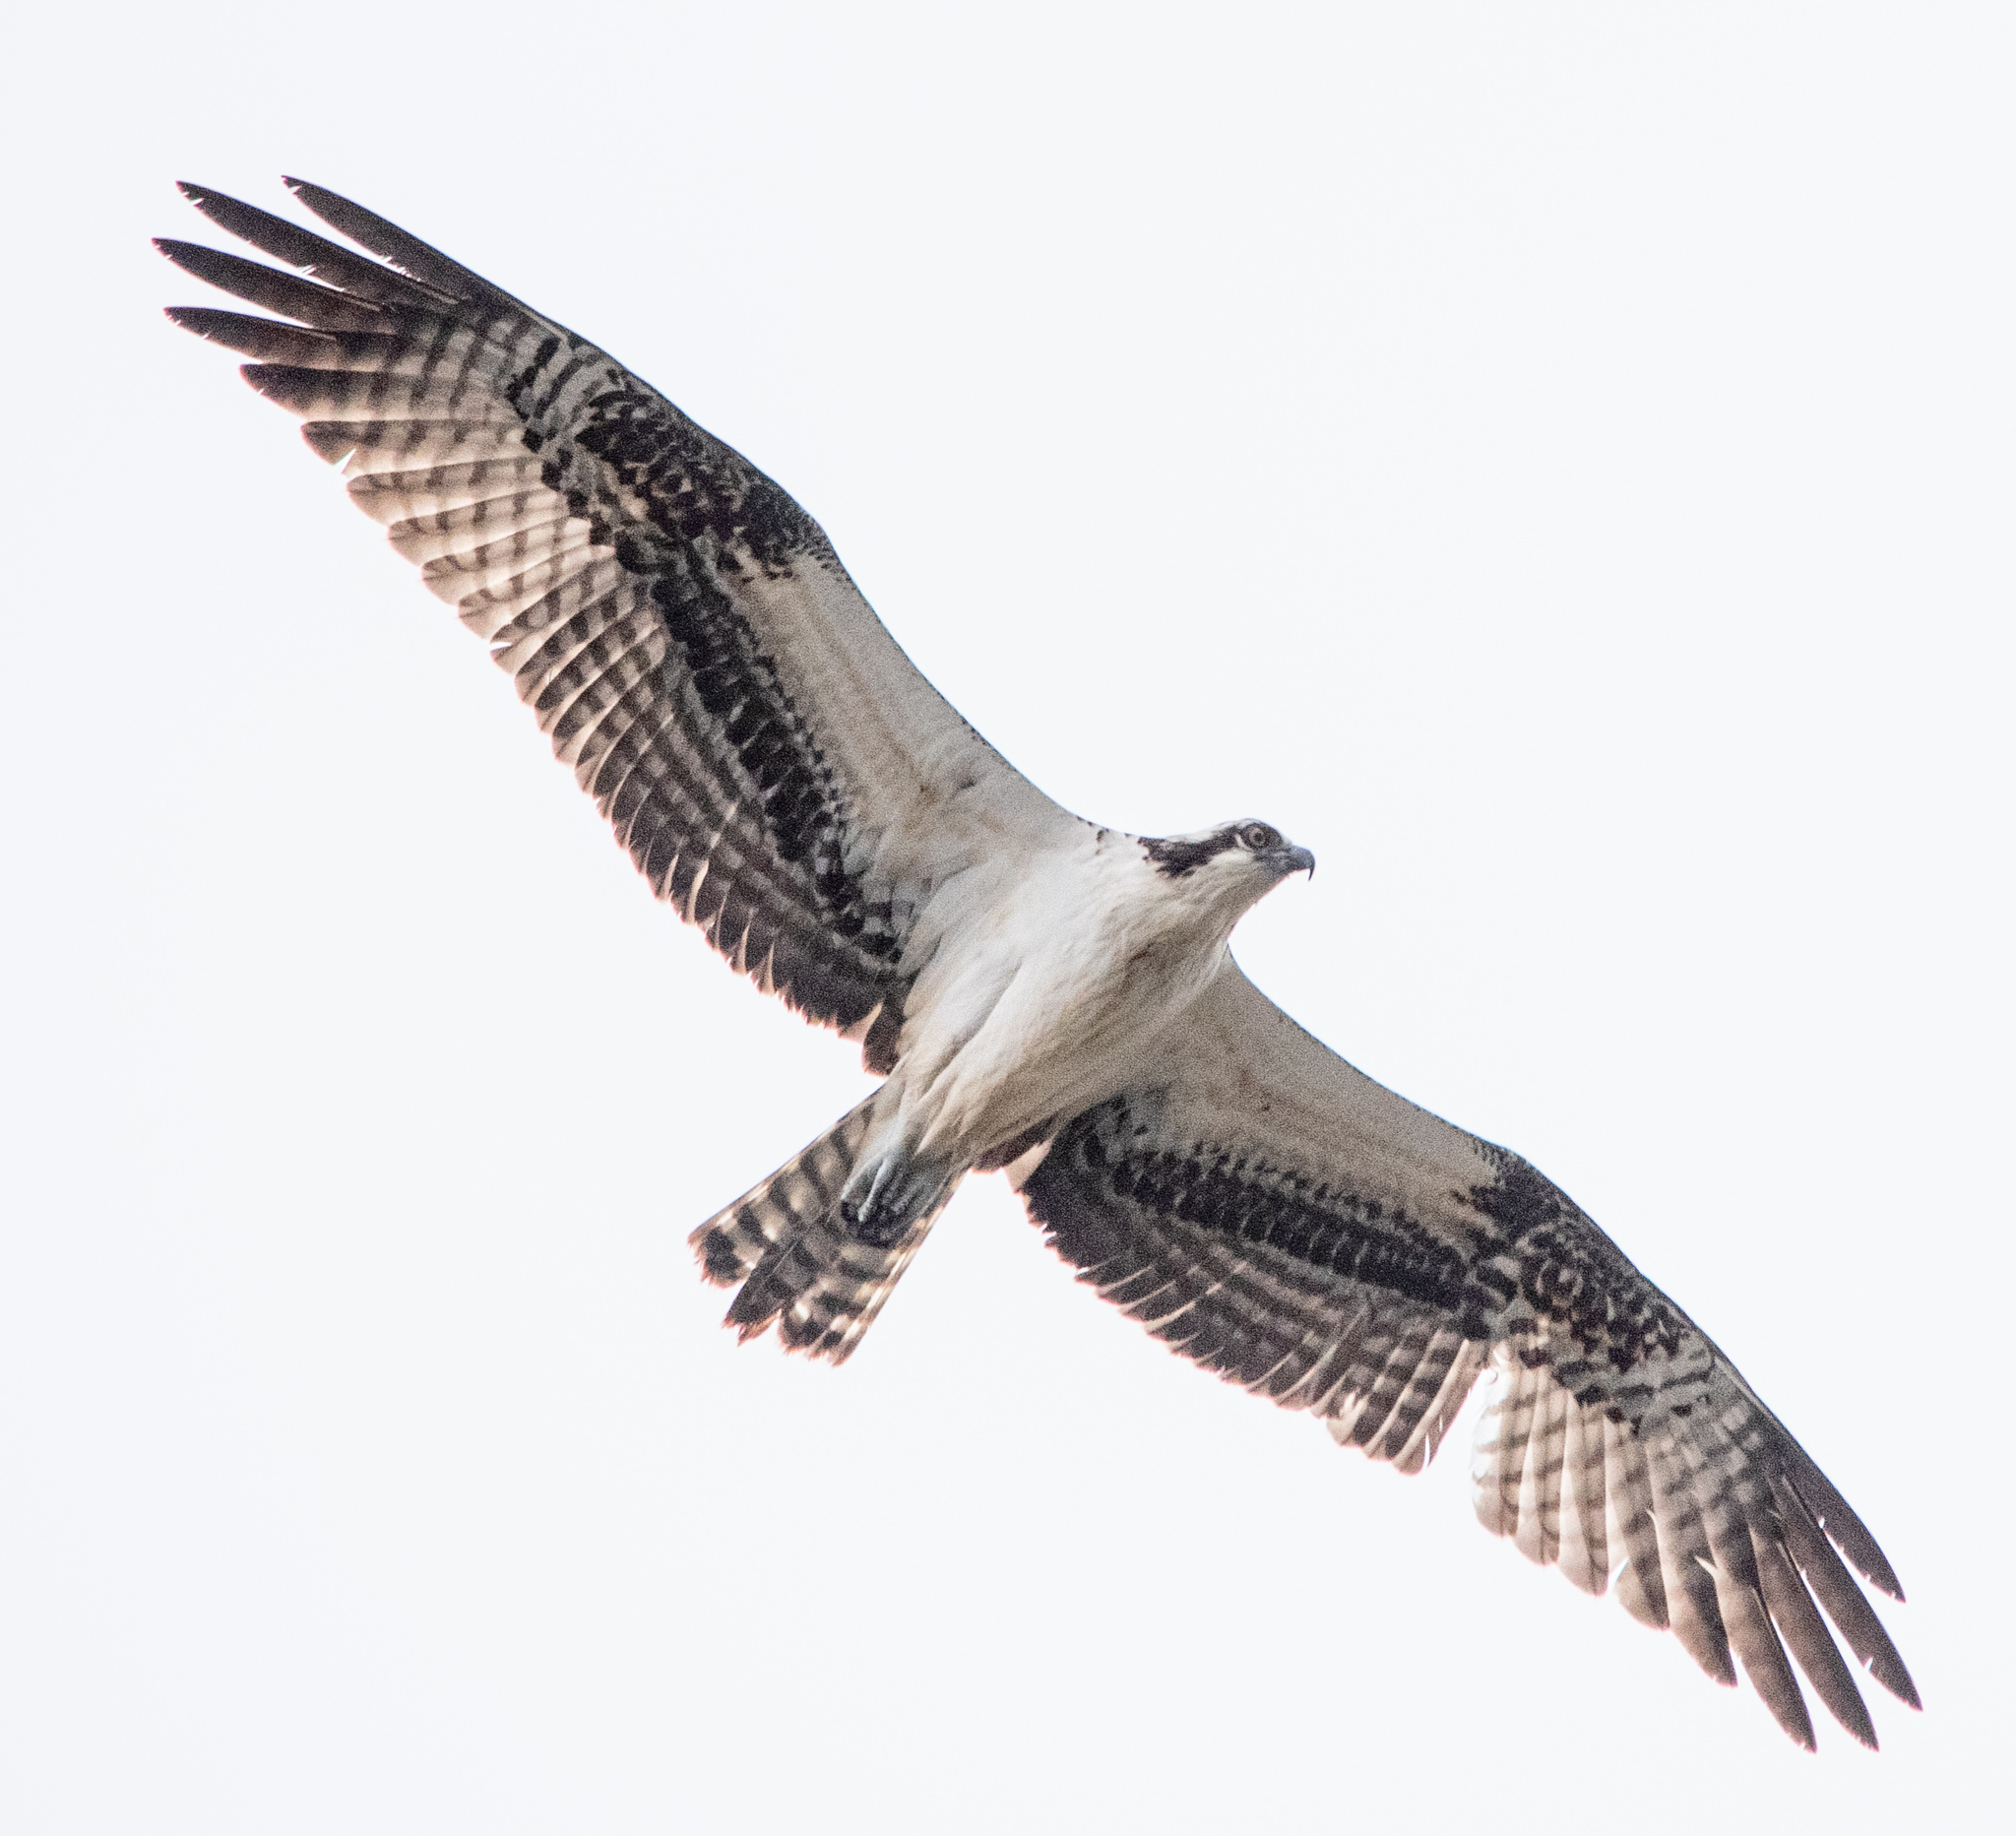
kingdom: Animalia
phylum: Chordata
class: Aves
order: Accipitriformes
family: Pandionidae
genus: Pandion
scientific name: Pandion haliaetus
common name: Osprey
